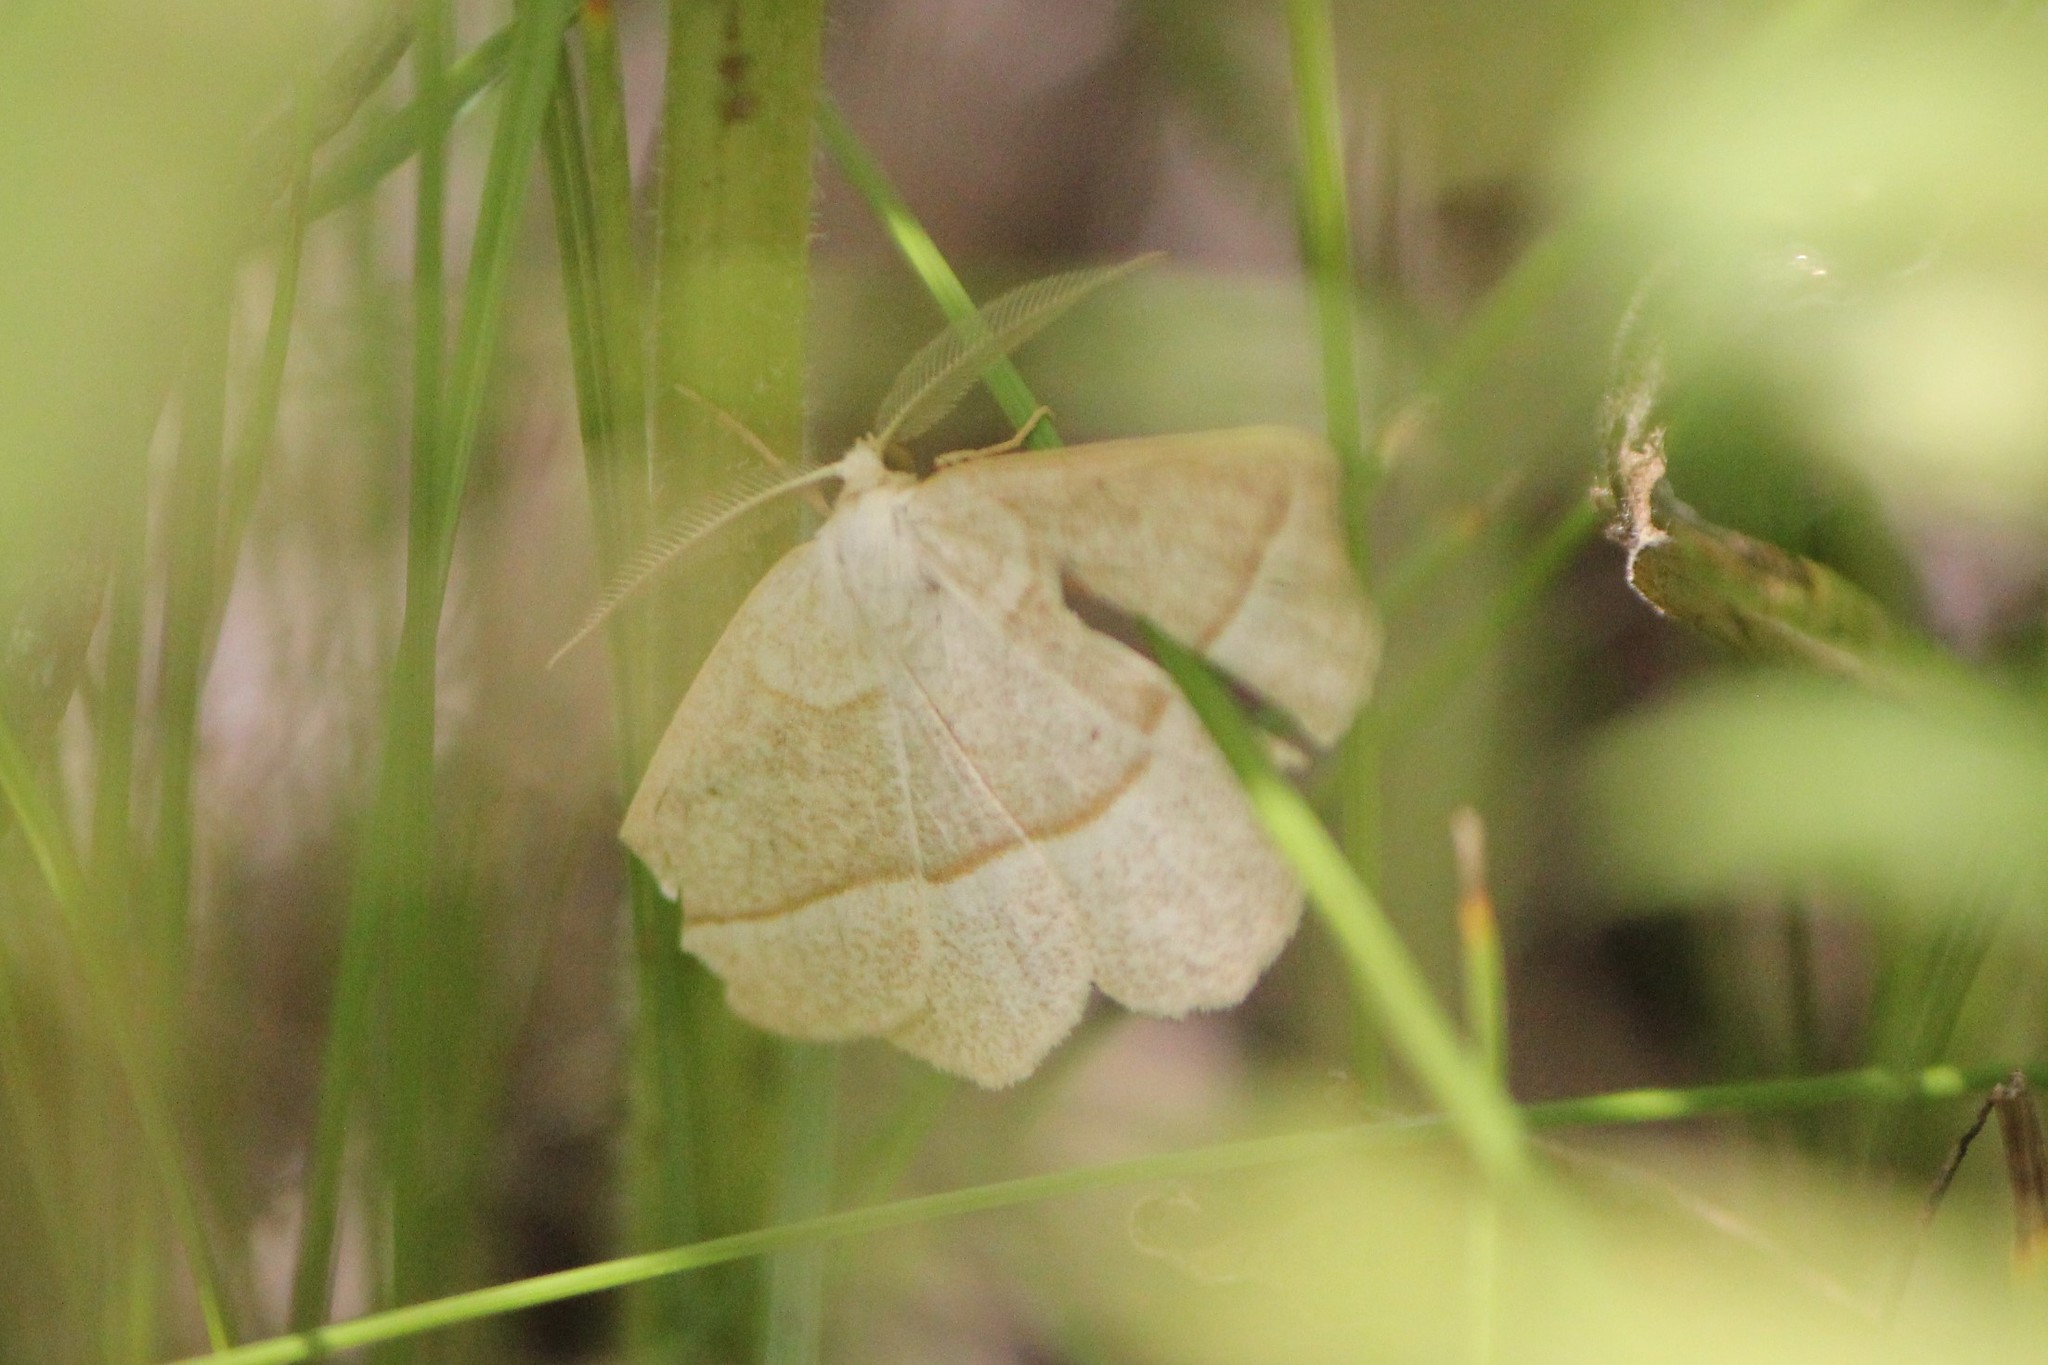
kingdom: Animalia
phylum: Arthropoda
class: Insecta
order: Lepidoptera
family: Geometridae
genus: Eusarca
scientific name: Eusarca confusaria
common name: Confused eusarca
